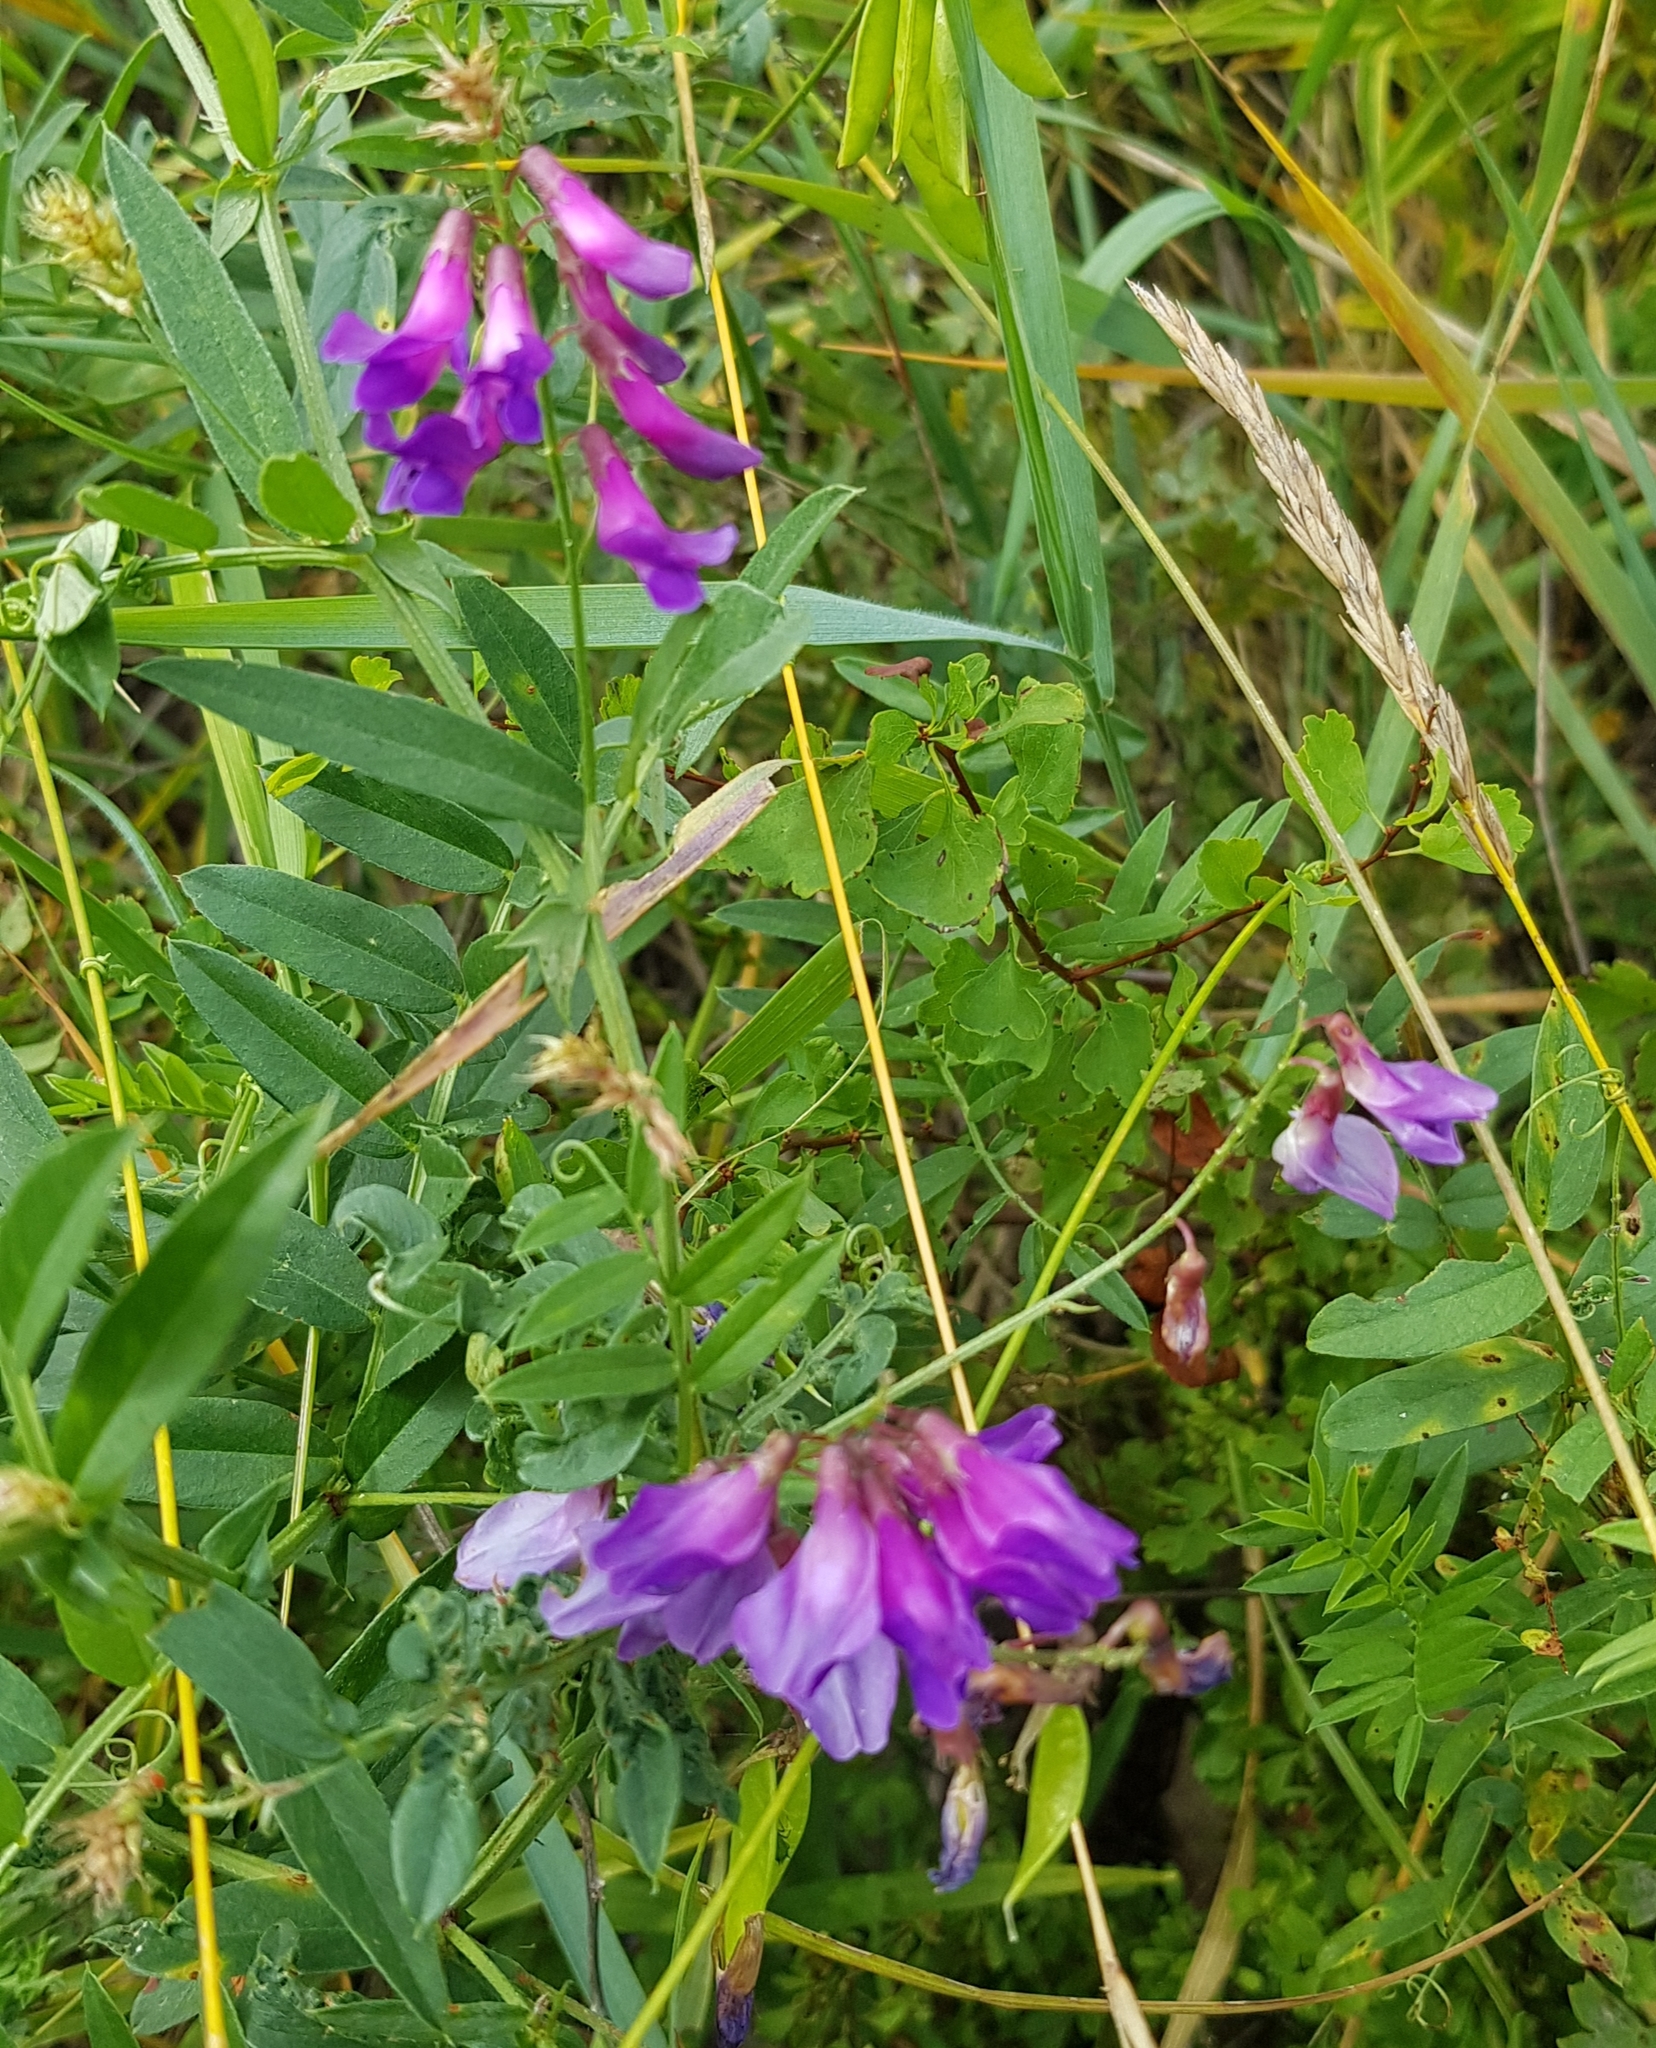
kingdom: Plantae
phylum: Tracheophyta
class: Magnoliopsida
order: Fabales
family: Fabaceae
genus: Vicia
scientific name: Vicia amoena
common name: Cheder ebs
